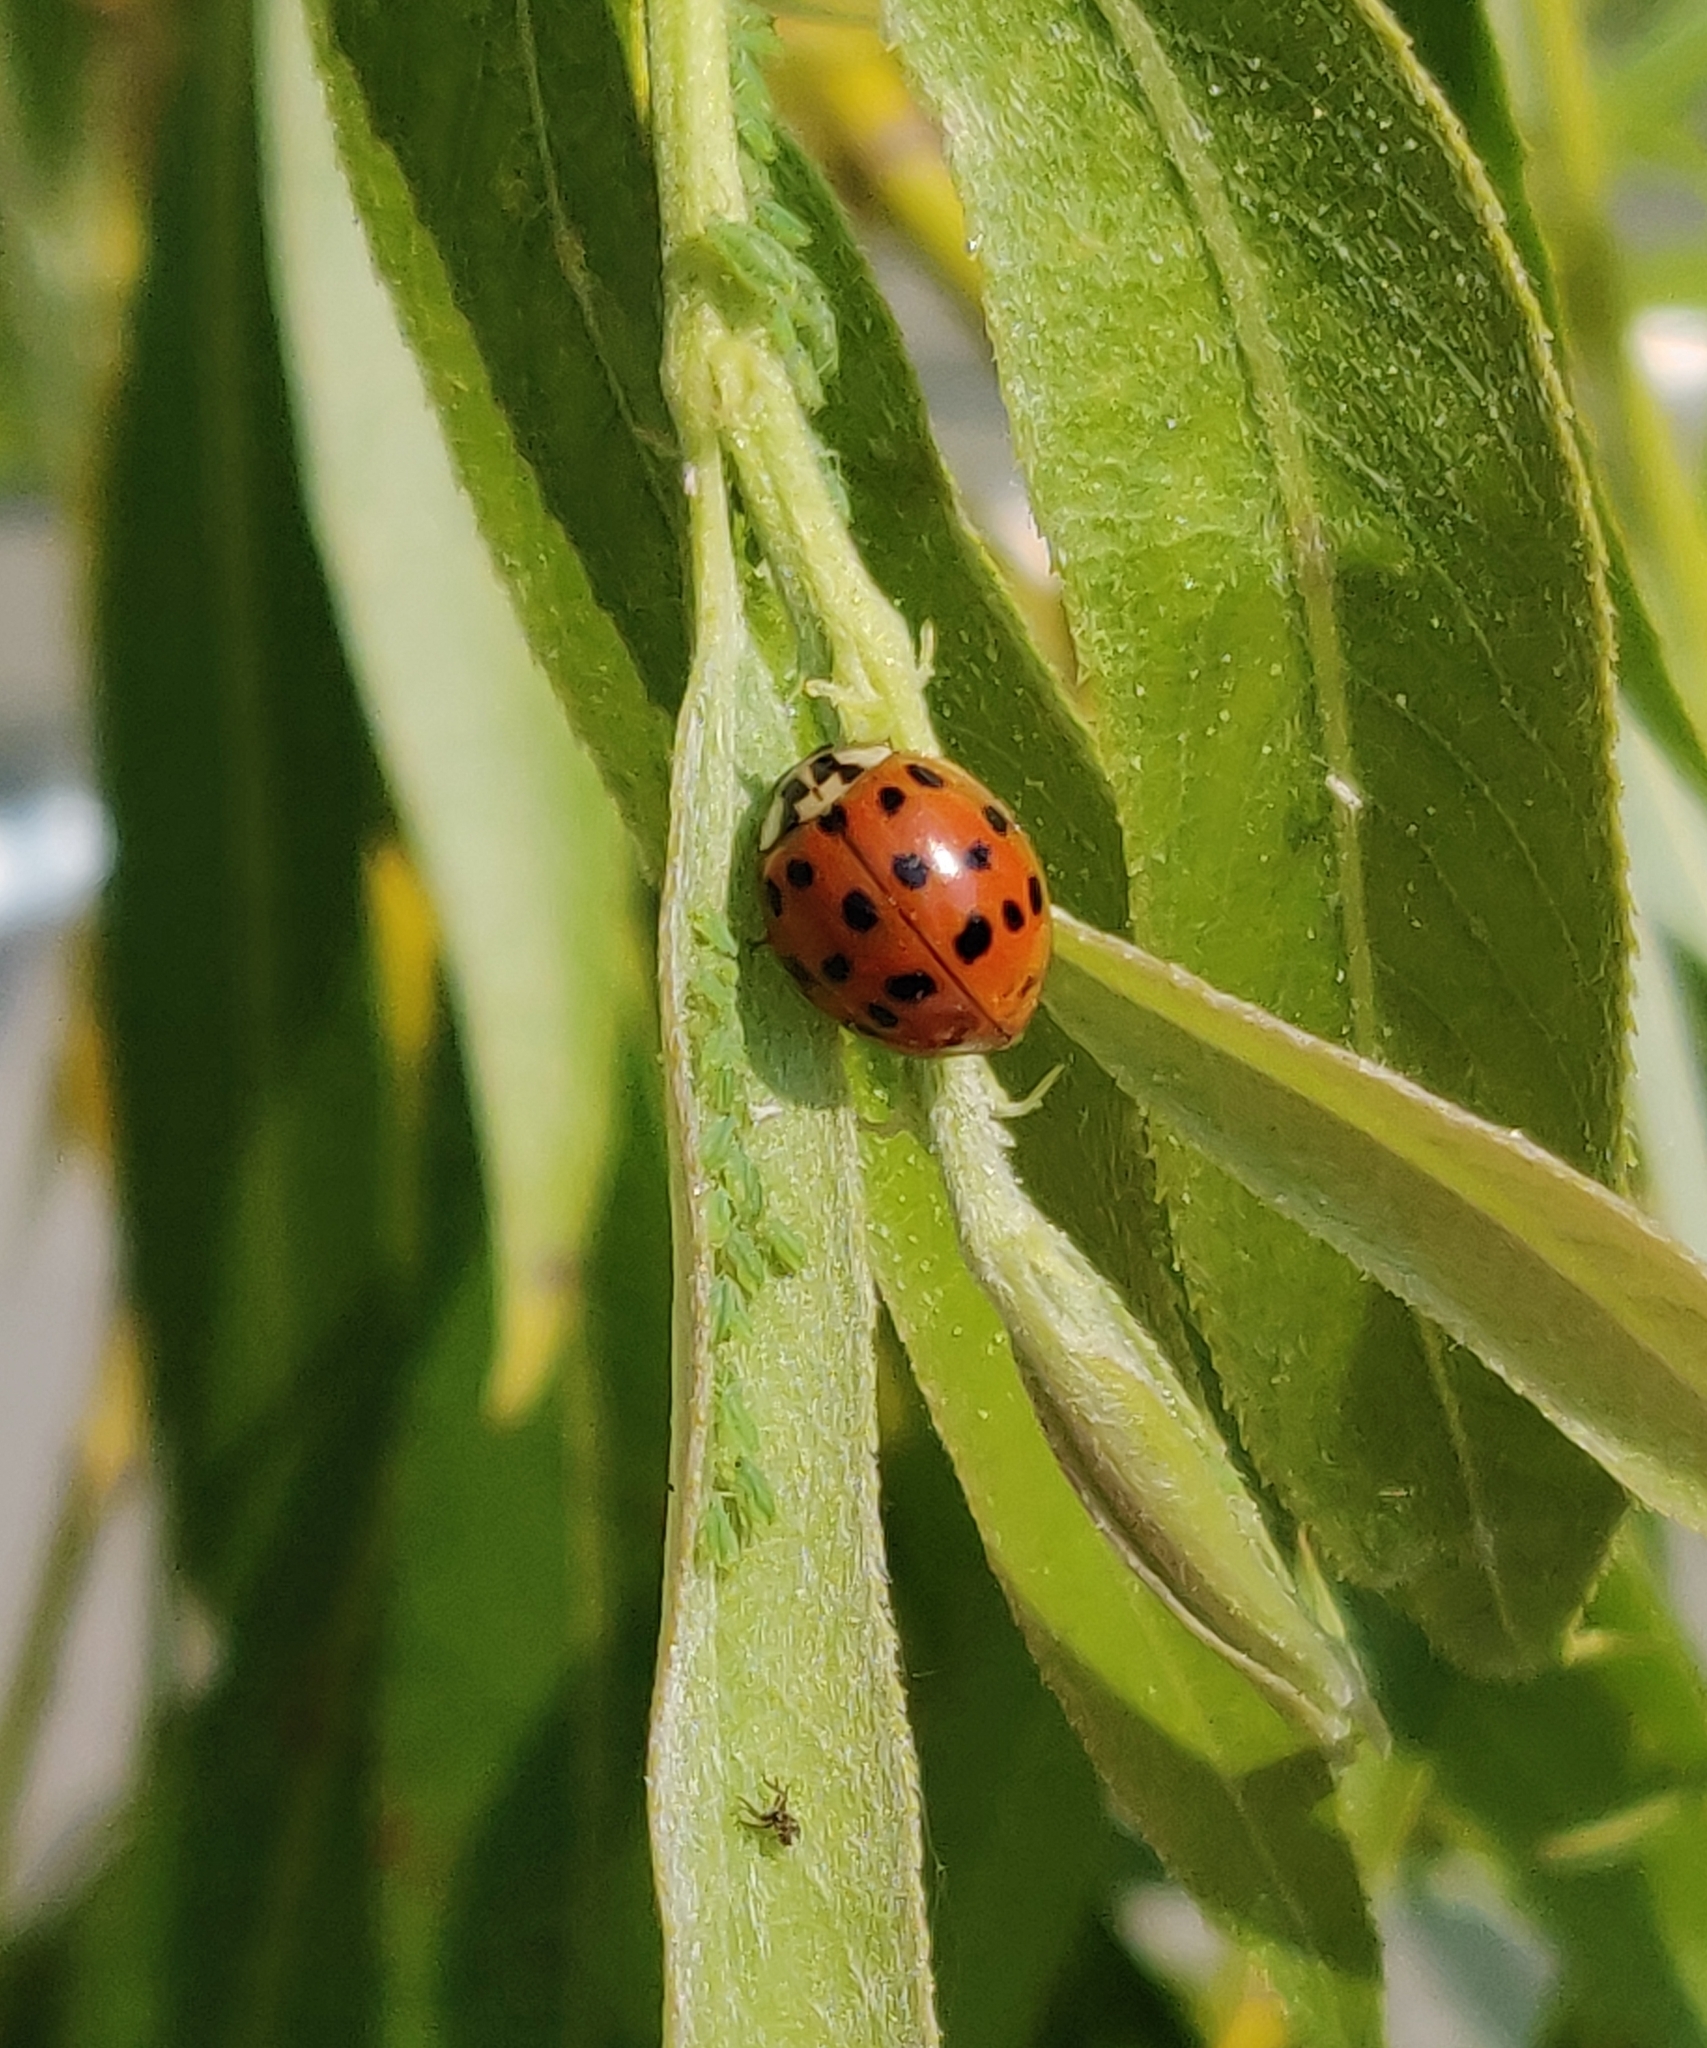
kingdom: Animalia
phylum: Arthropoda
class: Insecta
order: Coleoptera
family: Coccinellidae
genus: Harmonia
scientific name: Harmonia axyridis
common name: Harlequin ladybird
